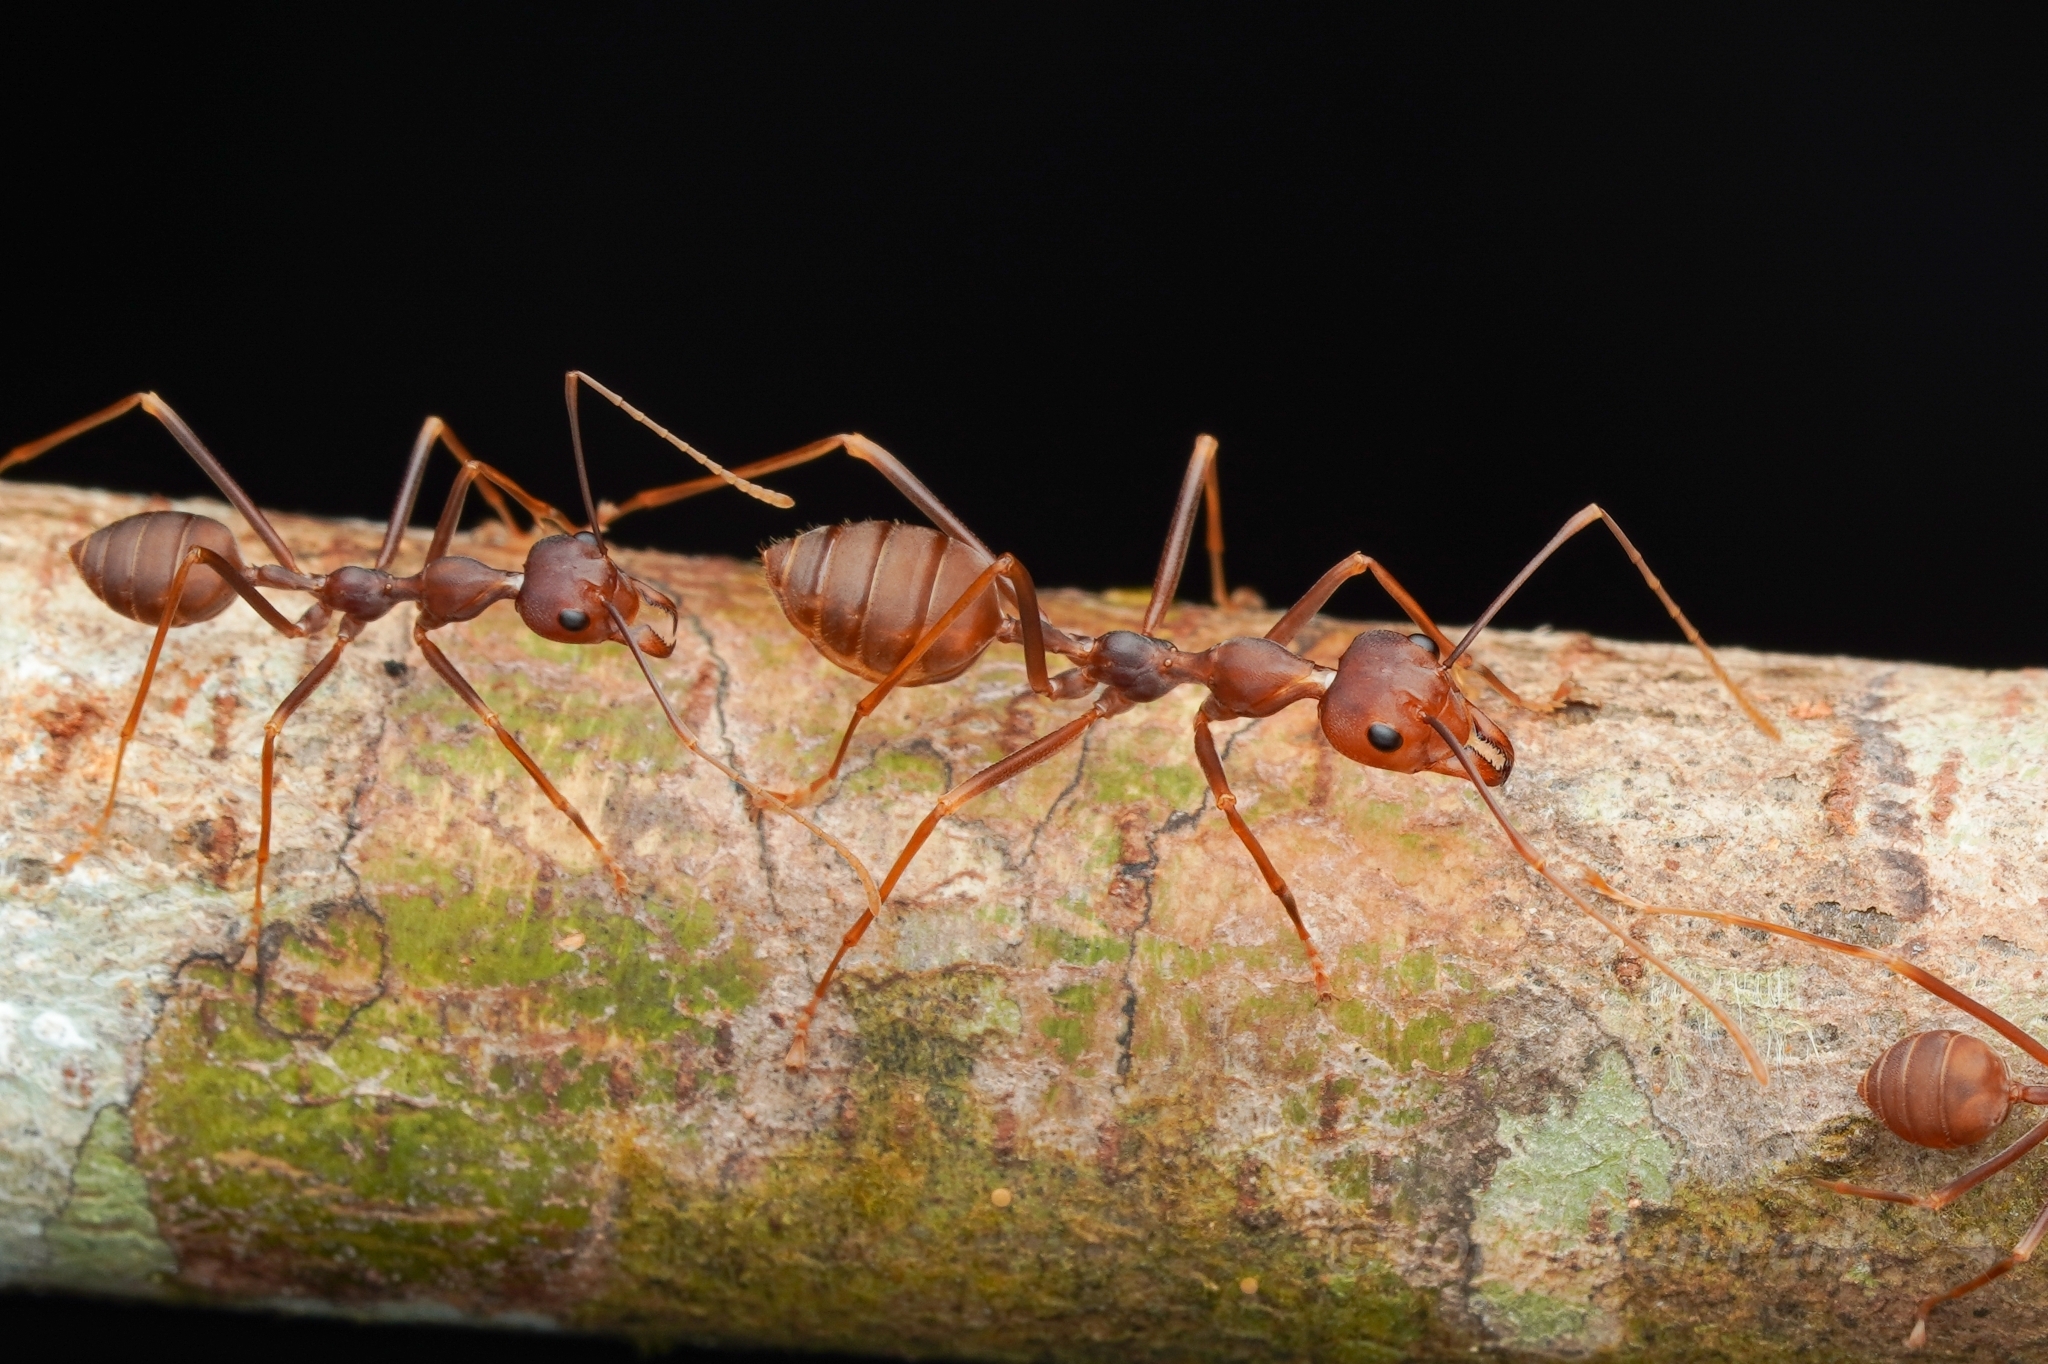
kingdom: Animalia
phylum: Arthropoda
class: Insecta
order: Hymenoptera
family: Formicidae
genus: Oecophylla
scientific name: Oecophylla smaragdina
